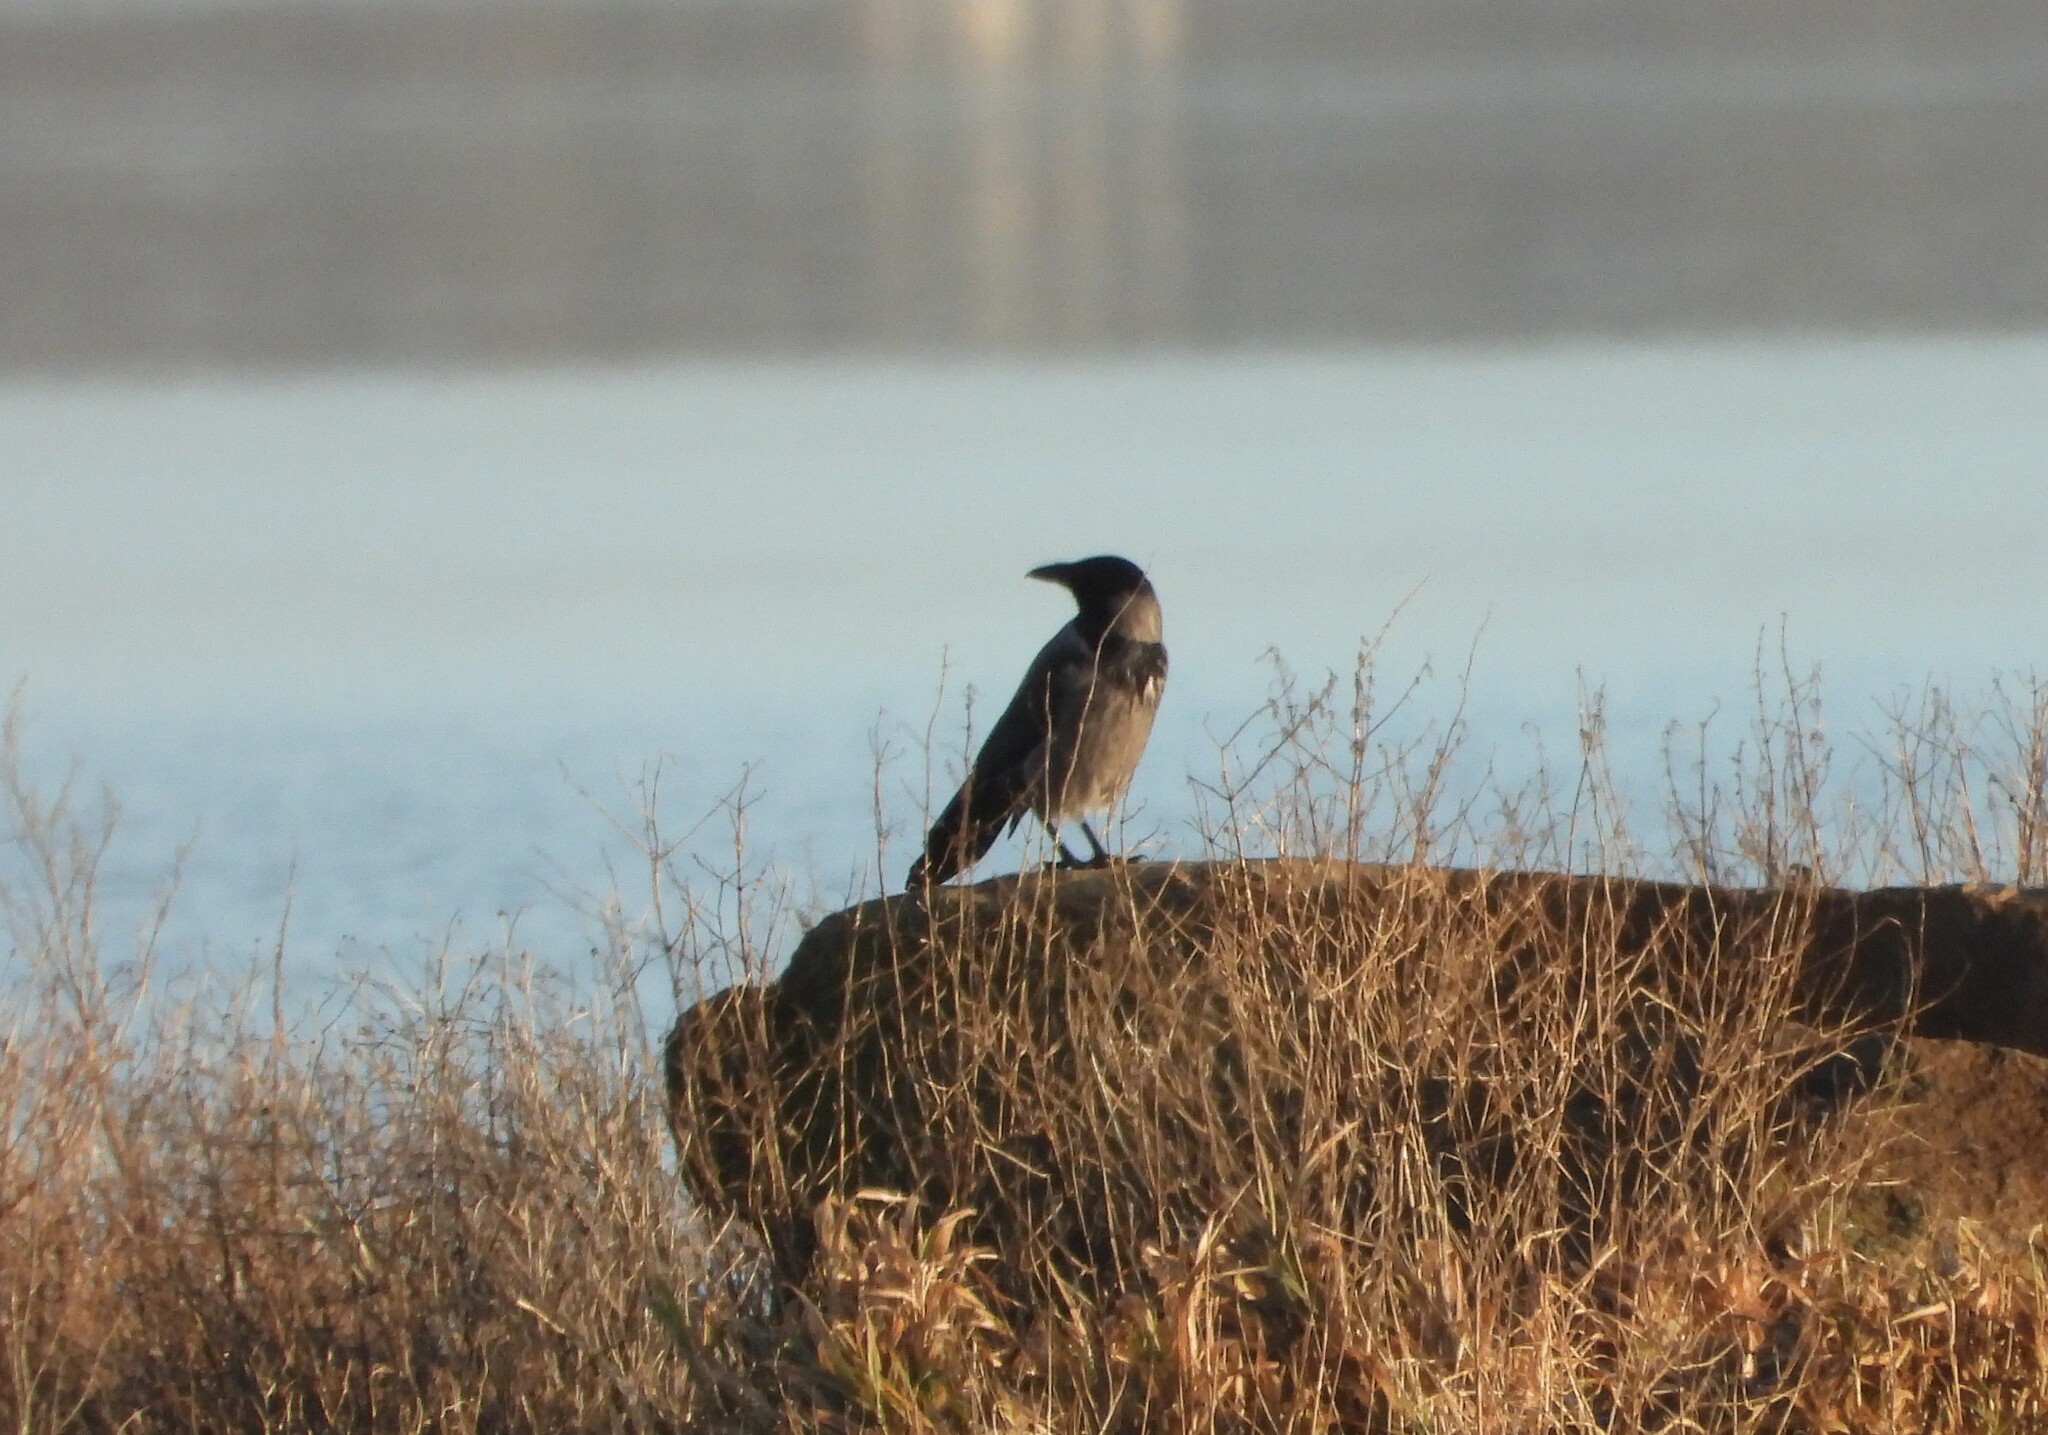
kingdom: Animalia
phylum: Chordata
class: Aves
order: Passeriformes
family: Corvidae
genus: Corvus
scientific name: Corvus cornix
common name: Hooded crow
